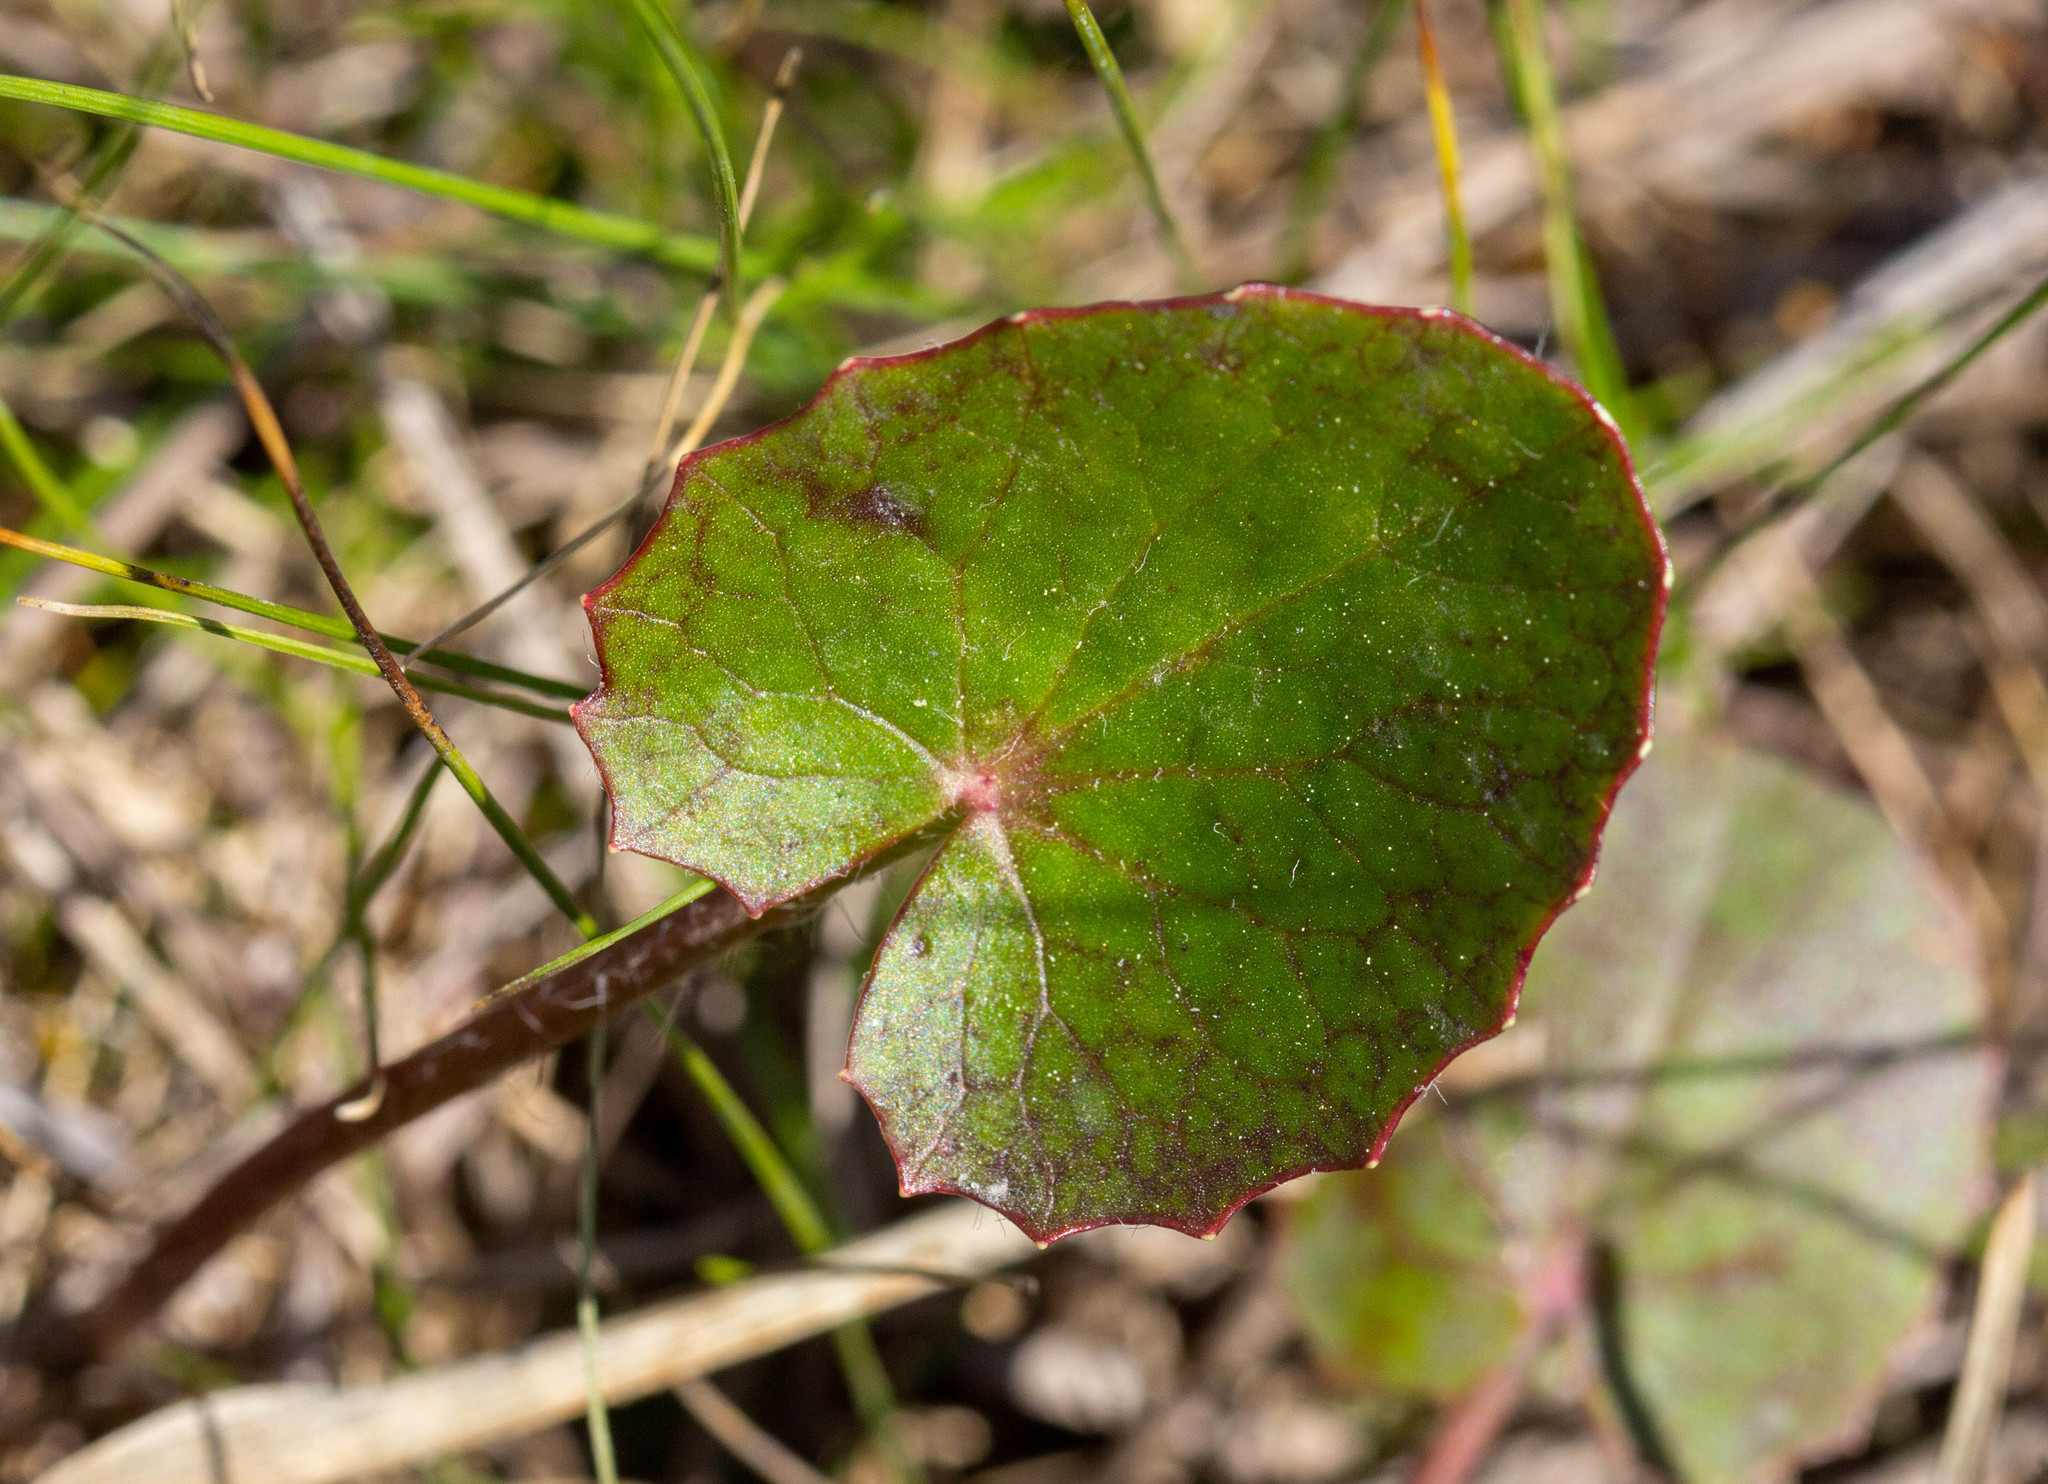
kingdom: Plantae
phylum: Tracheophyta
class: Magnoliopsida
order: Apiales
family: Apiaceae
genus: Centella
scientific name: Centella erecta
